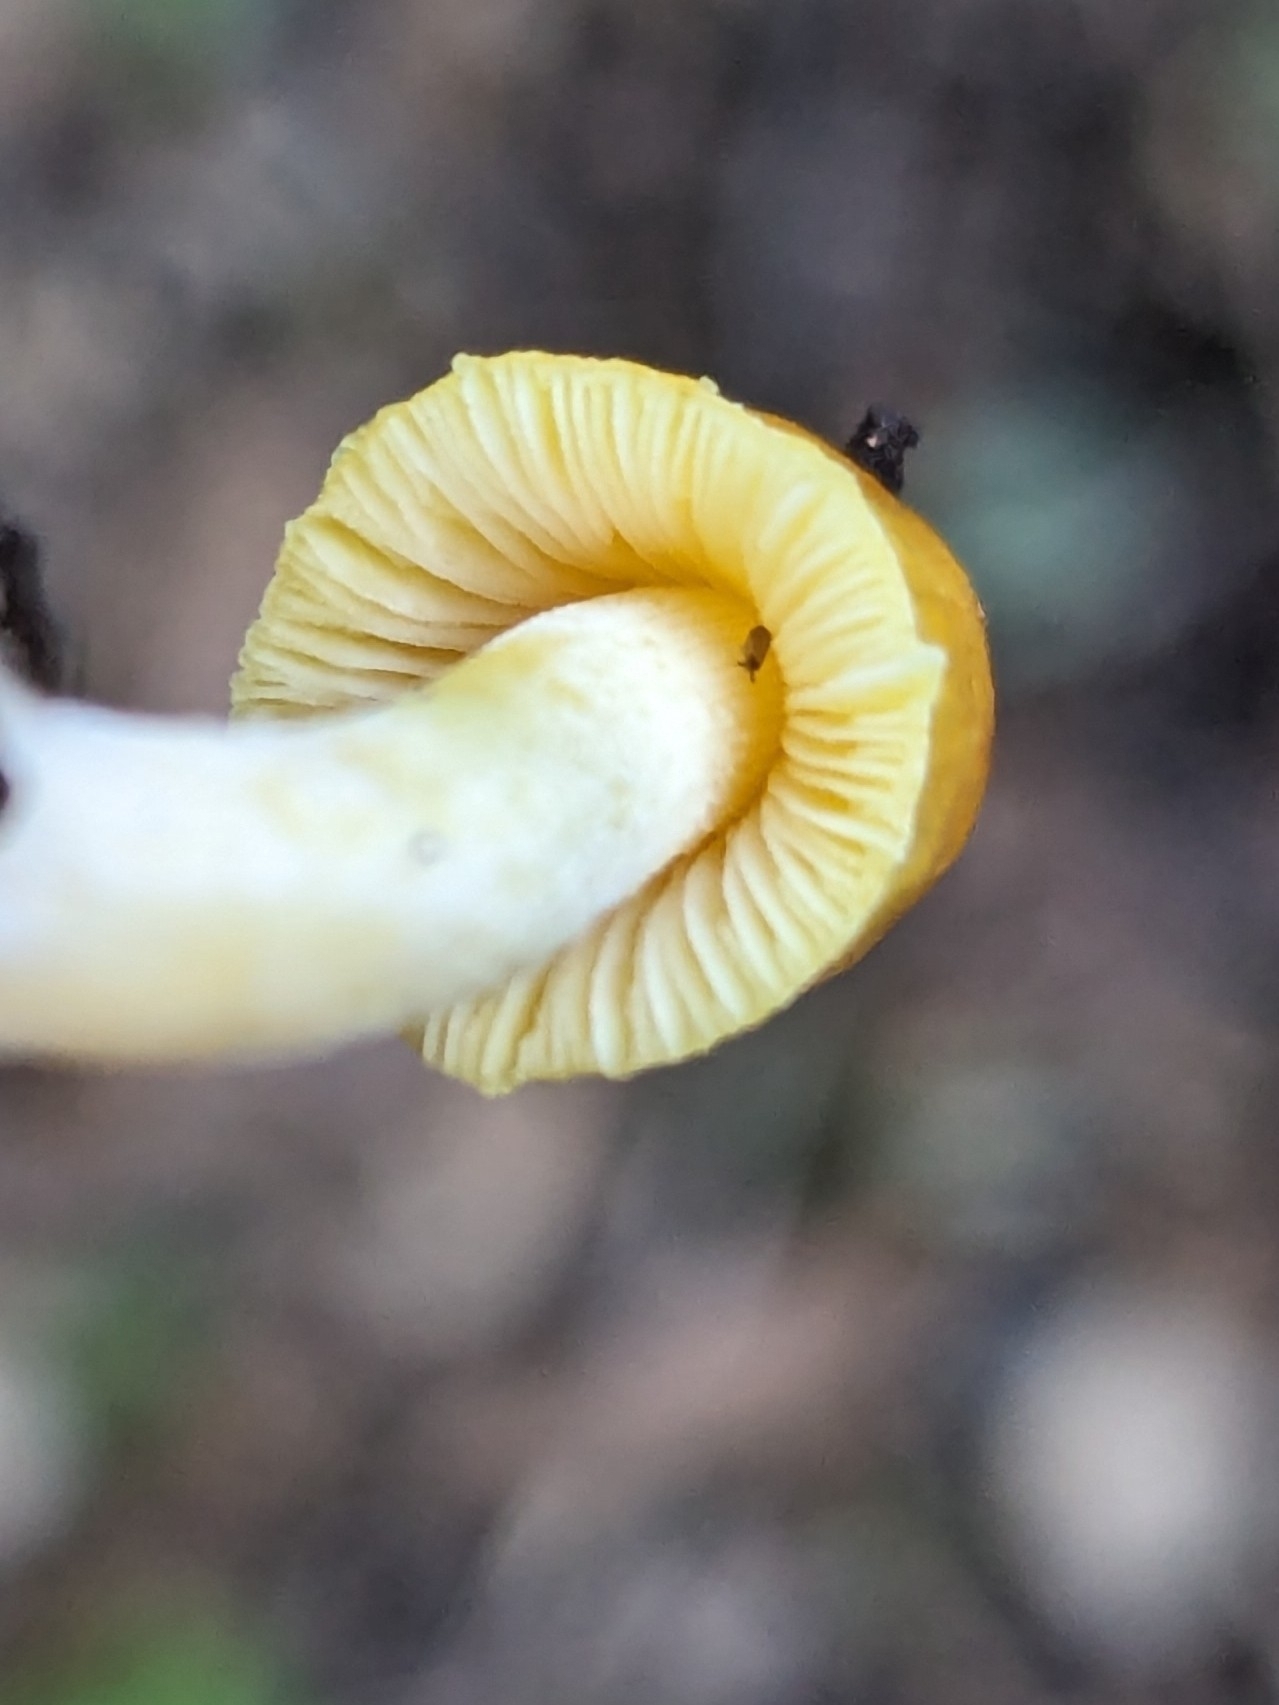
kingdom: Fungi
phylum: Basidiomycota
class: Agaricomycetes
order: Agaricales
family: Bolbitiaceae
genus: Bolbitius
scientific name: Bolbitius titubans
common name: Yellow fieldcap
